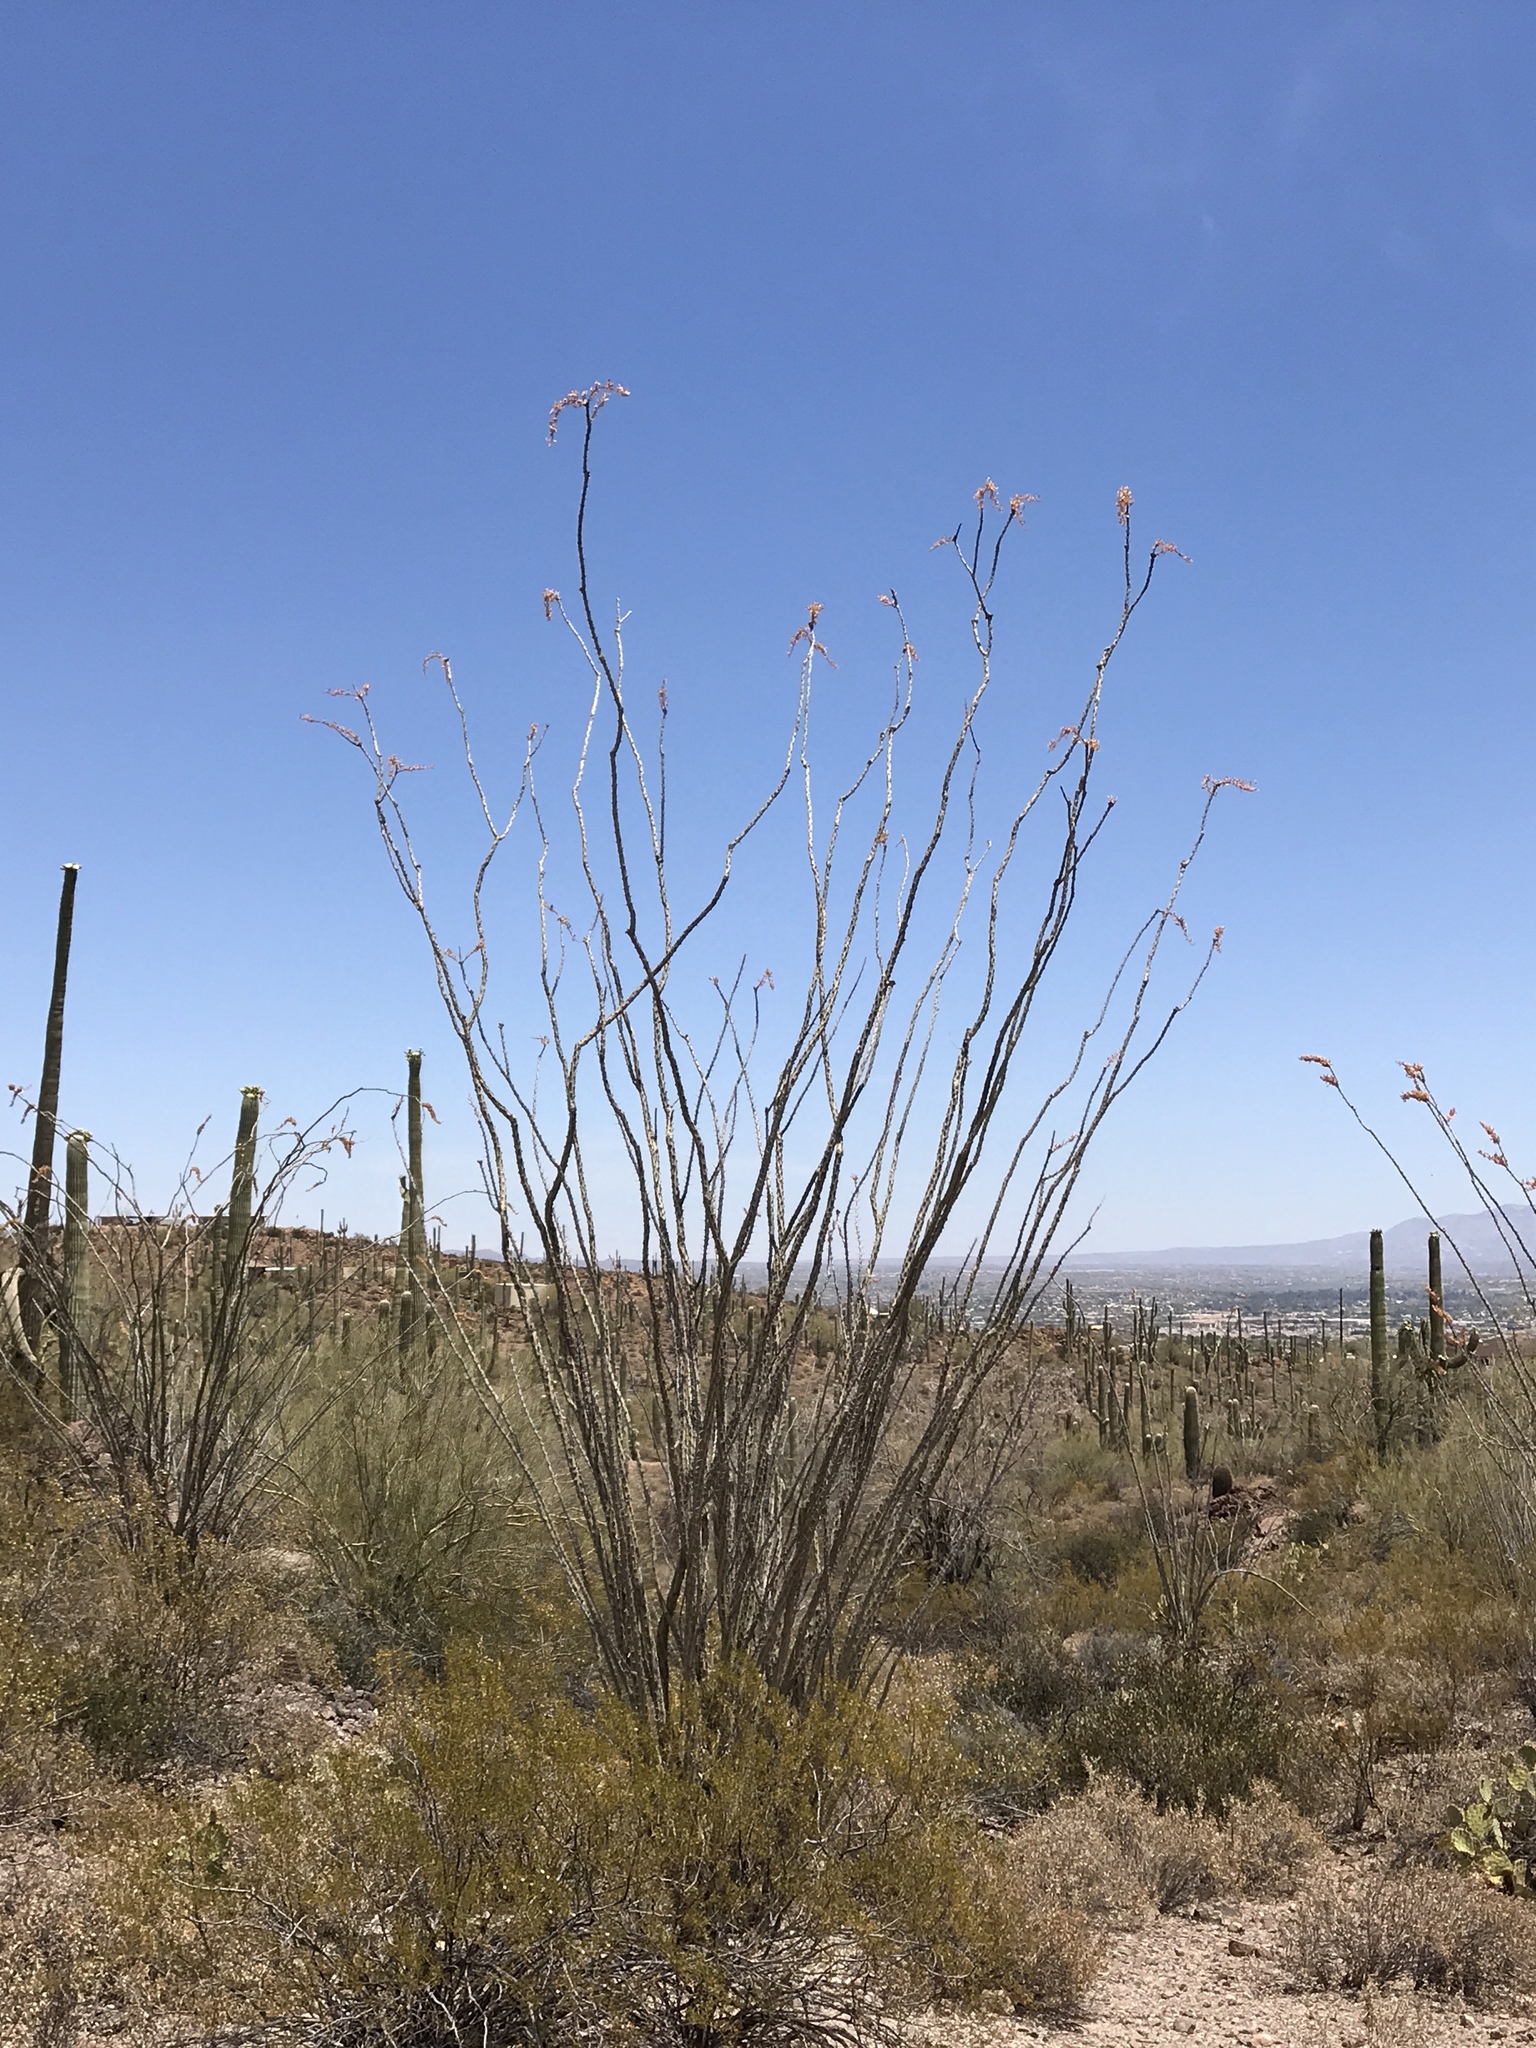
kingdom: Plantae
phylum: Tracheophyta
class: Magnoliopsida
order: Ericales
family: Fouquieriaceae
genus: Fouquieria
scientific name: Fouquieria splendens
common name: Vine-cactus
